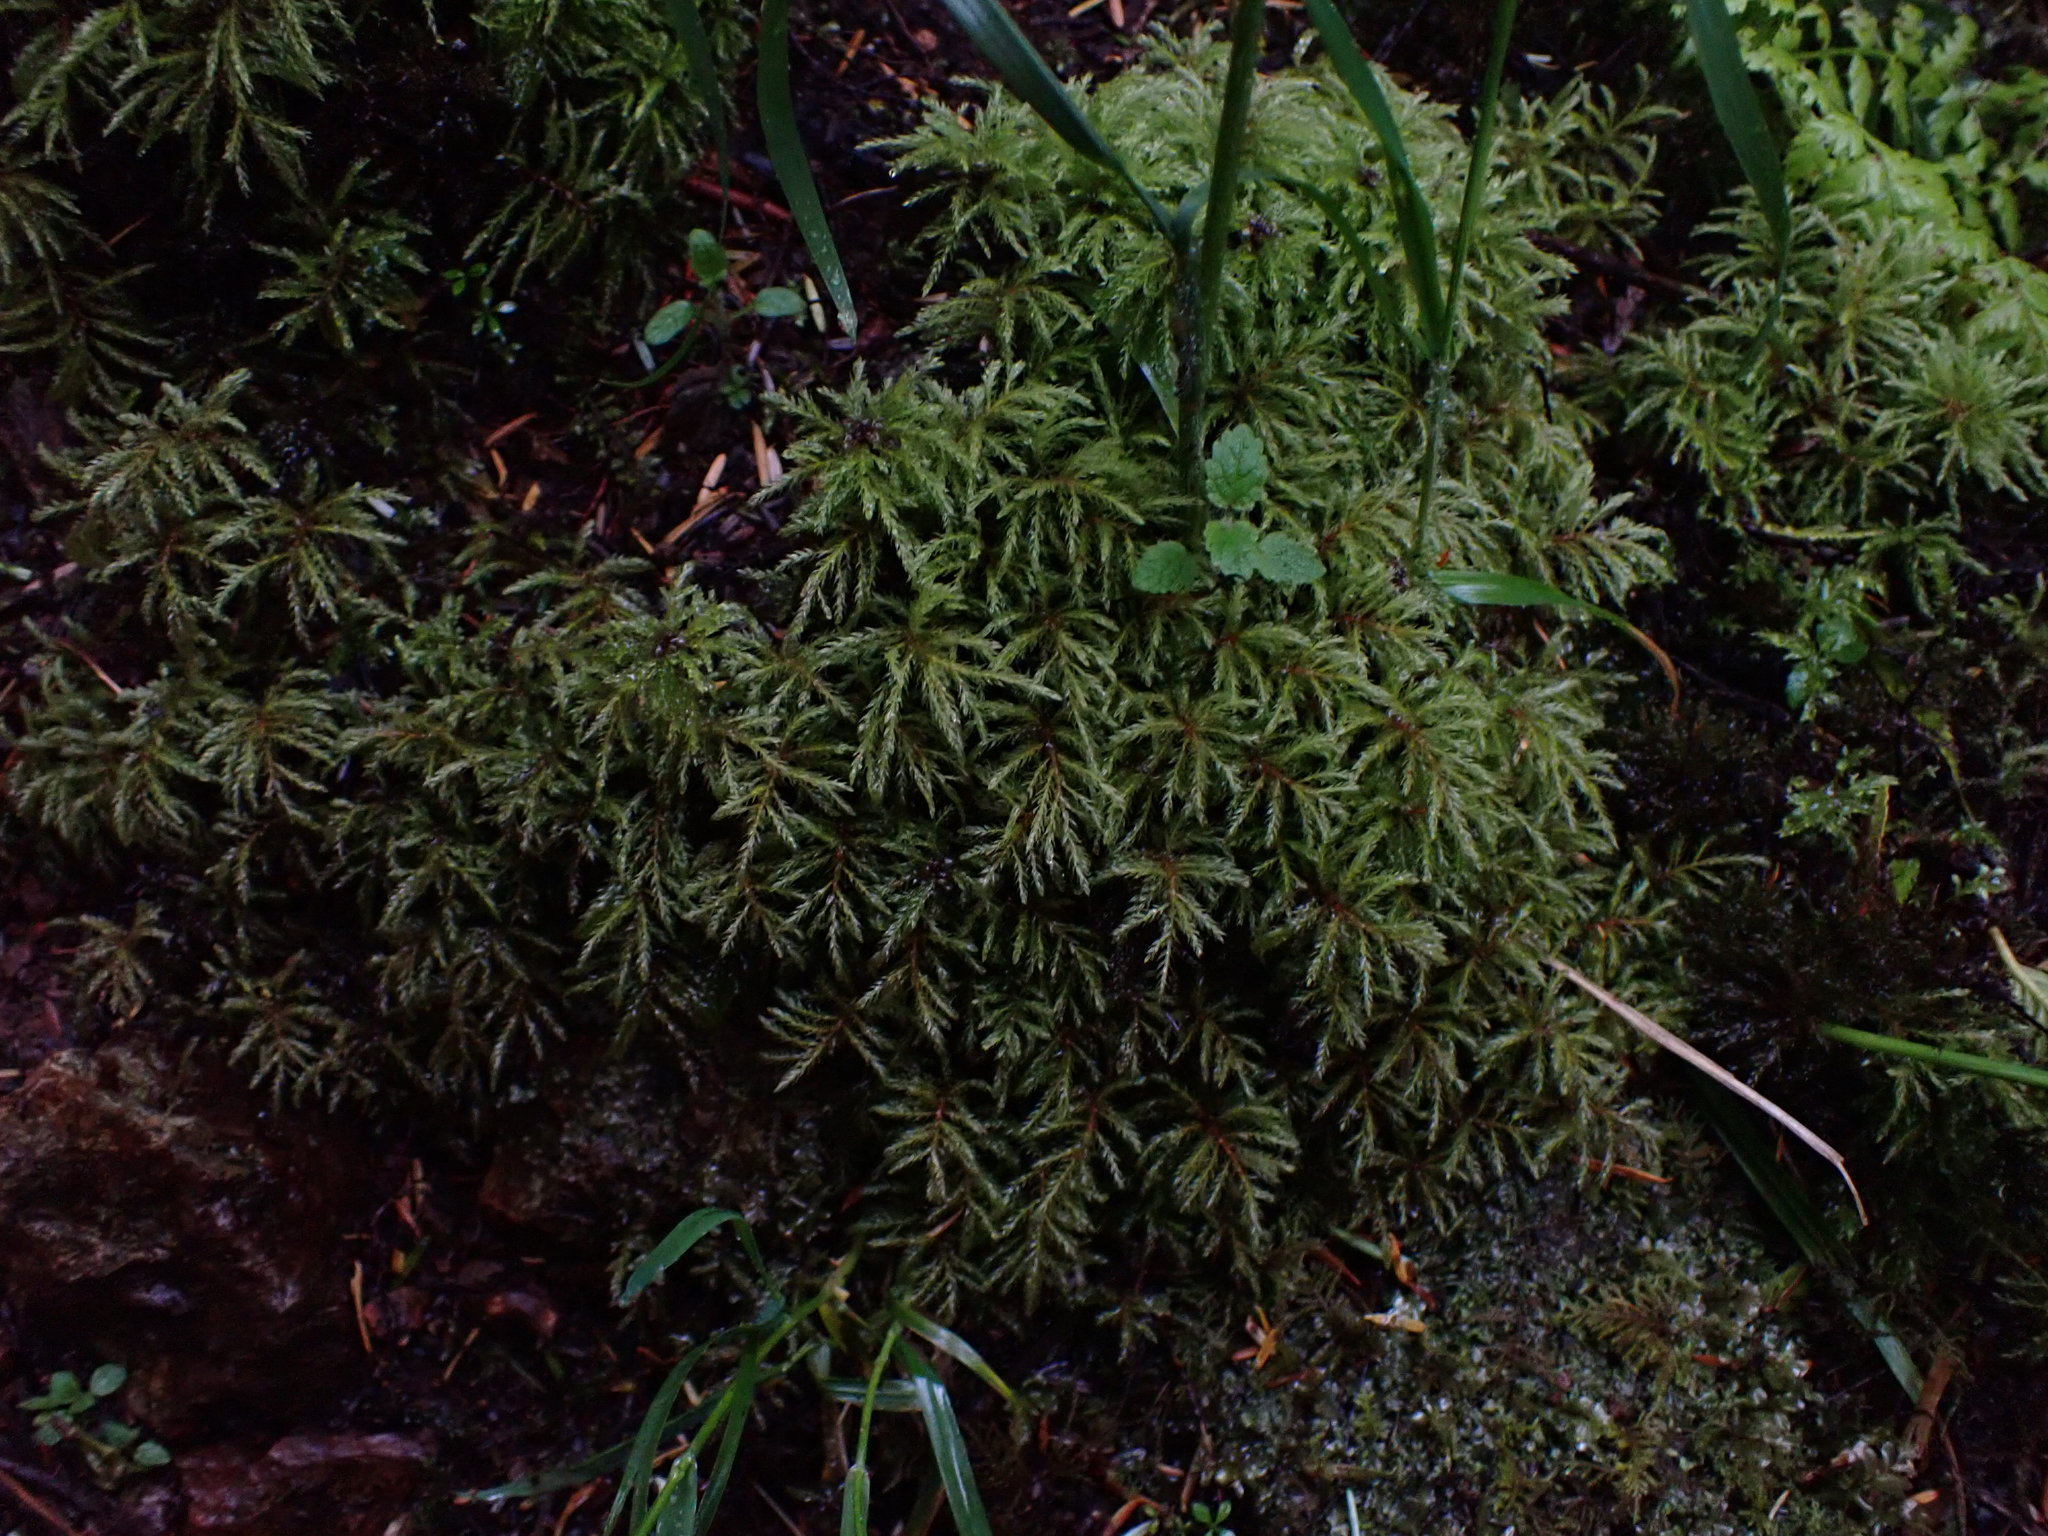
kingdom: Plantae
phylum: Bryophyta
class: Bryopsida
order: Bryales
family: Mniaceae
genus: Leucolepis
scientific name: Leucolepis acanthoneura
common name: Leucolepis umbrella moss
